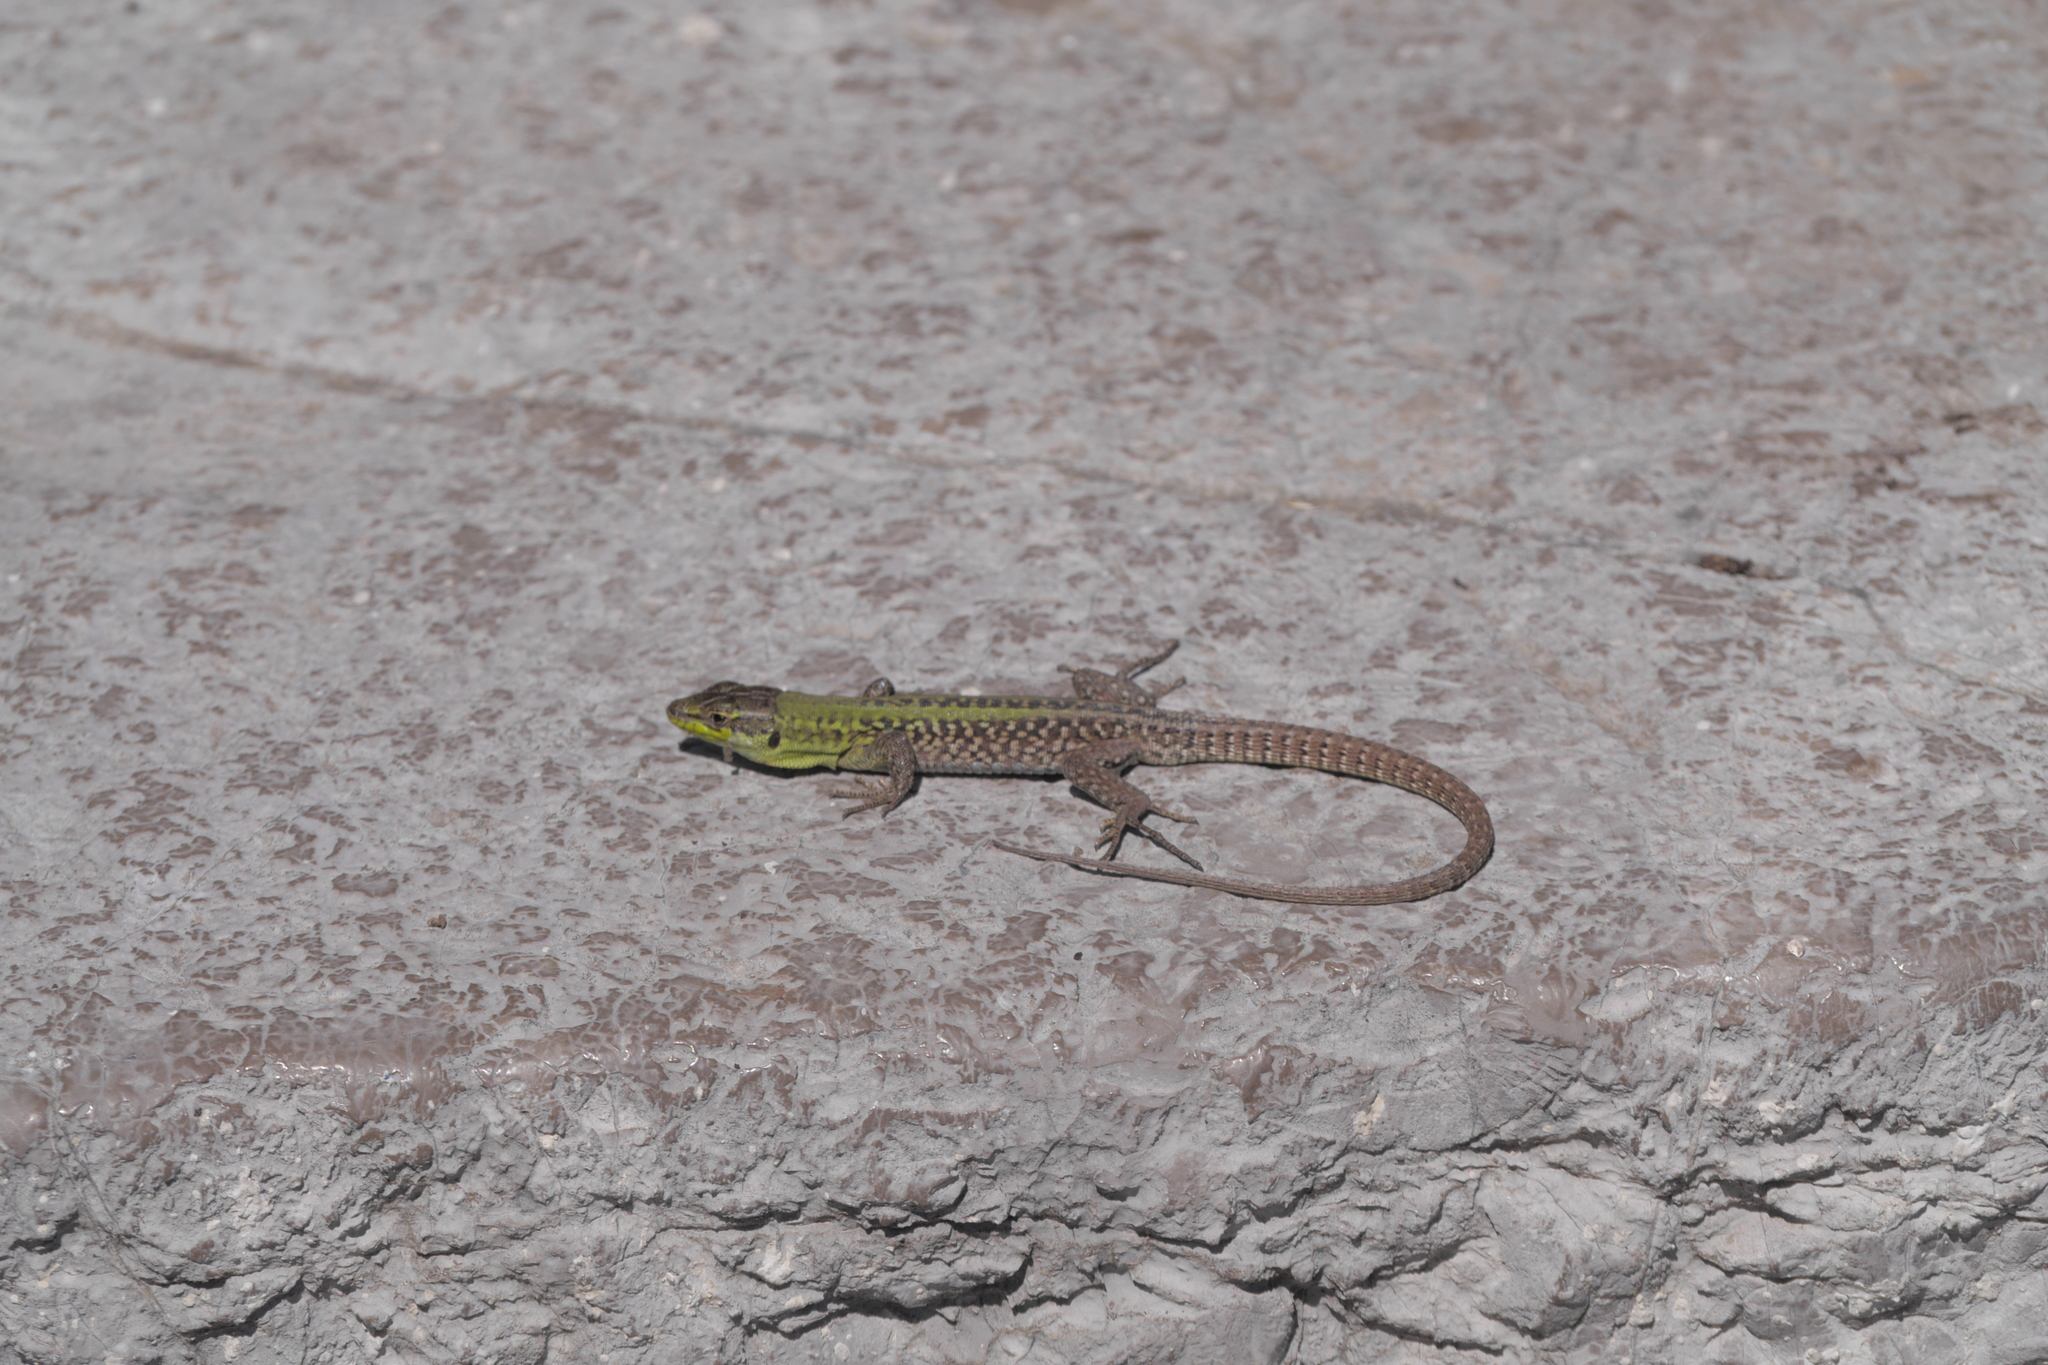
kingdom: Animalia
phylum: Chordata
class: Squamata
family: Lacertidae
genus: Podarcis
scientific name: Podarcis siculus
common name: Italian wall lizard
